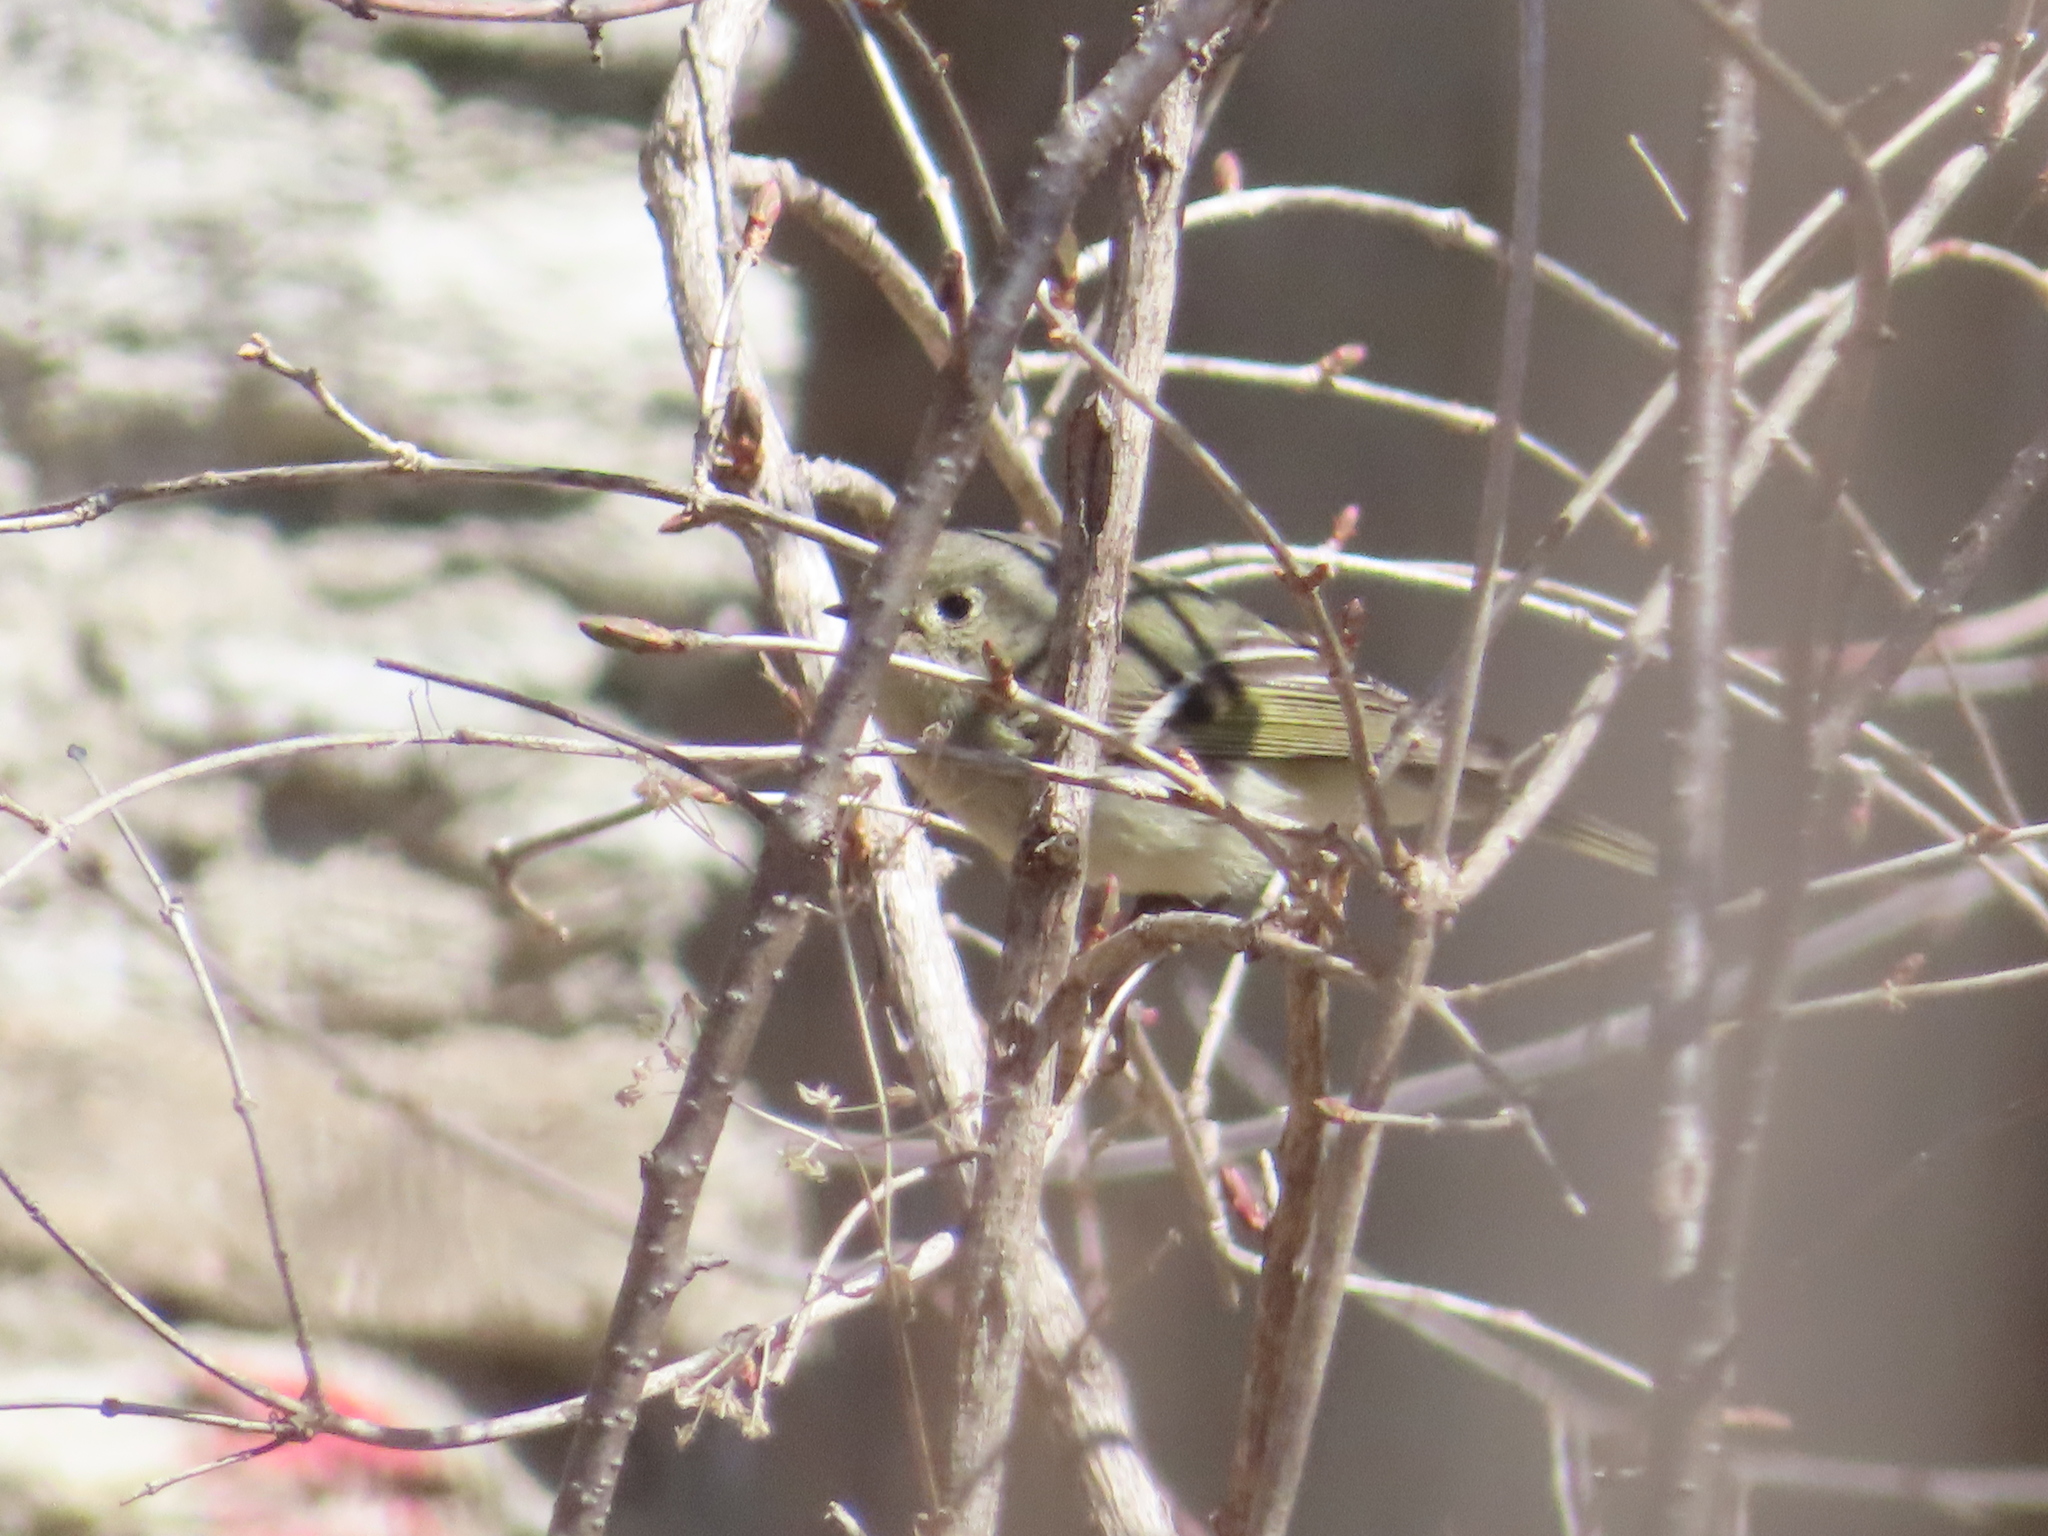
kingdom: Animalia
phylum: Chordata
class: Aves
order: Passeriformes
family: Regulidae
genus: Regulus
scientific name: Regulus calendula
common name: Ruby-crowned kinglet
